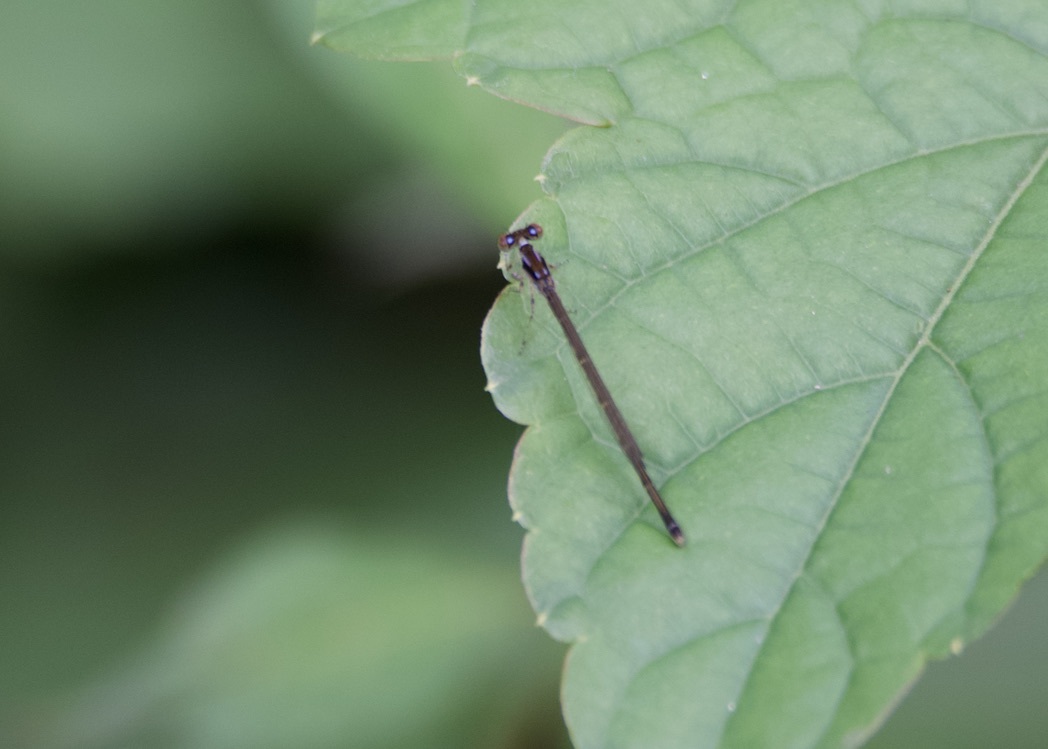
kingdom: Animalia
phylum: Arthropoda
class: Insecta
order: Odonata
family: Coenagrionidae
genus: Ischnura
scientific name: Ischnura posita
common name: Fragile forktail
